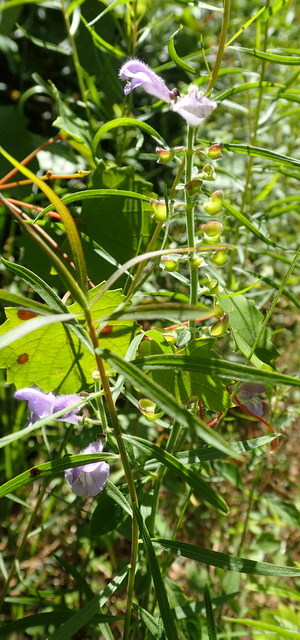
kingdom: Plantae
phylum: Tracheophyta
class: Magnoliopsida
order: Lamiales
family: Lamiaceae
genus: Scutellaria
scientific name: Scutellaria integrifolia
